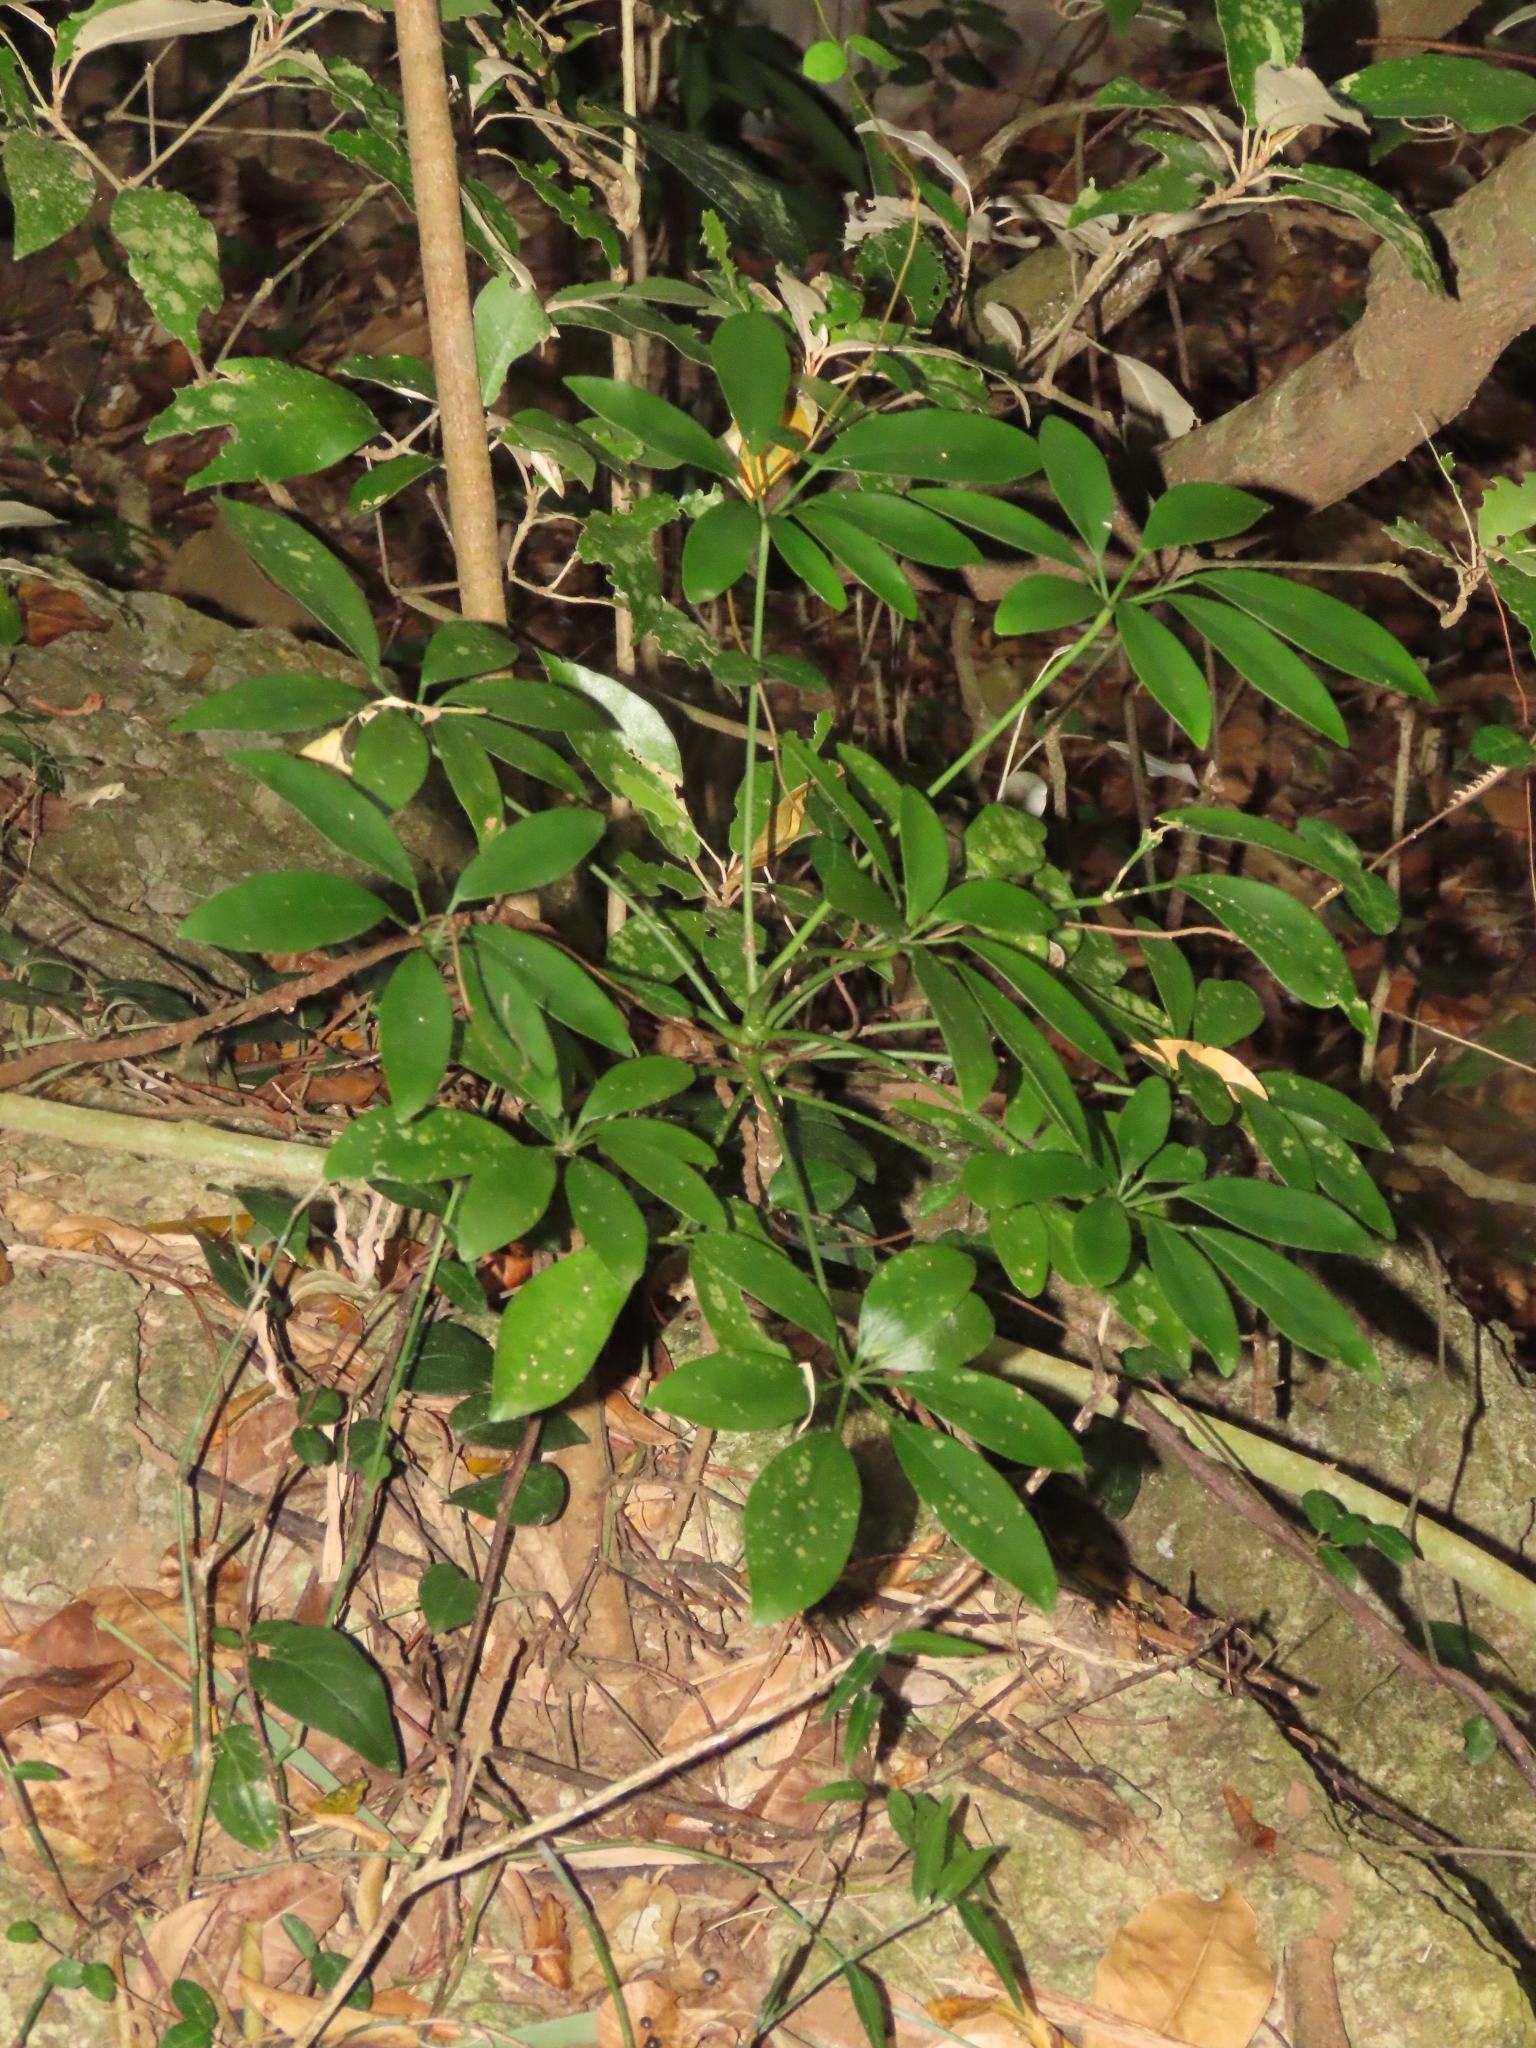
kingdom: Plantae
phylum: Tracheophyta
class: Magnoliopsida
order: Apiales
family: Araliaceae
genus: Heptapleurum
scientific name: Heptapleurum arboricola
